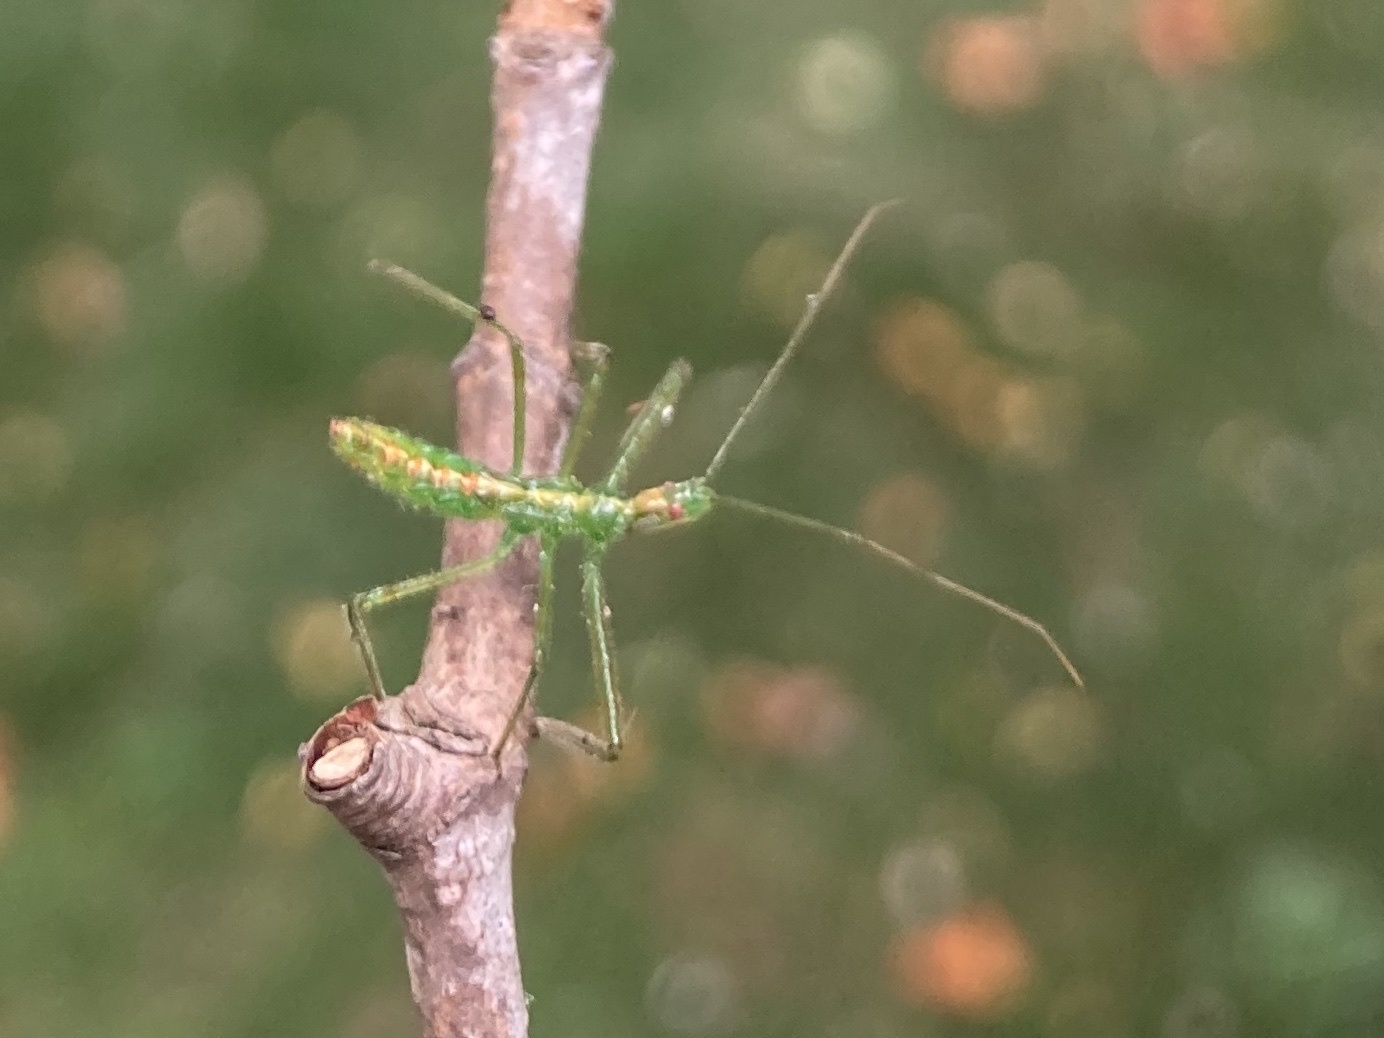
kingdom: Animalia
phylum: Arthropoda
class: Insecta
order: Hemiptera
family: Reduviidae
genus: Zelus
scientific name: Zelus luridus
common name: Pale green assassin bug
